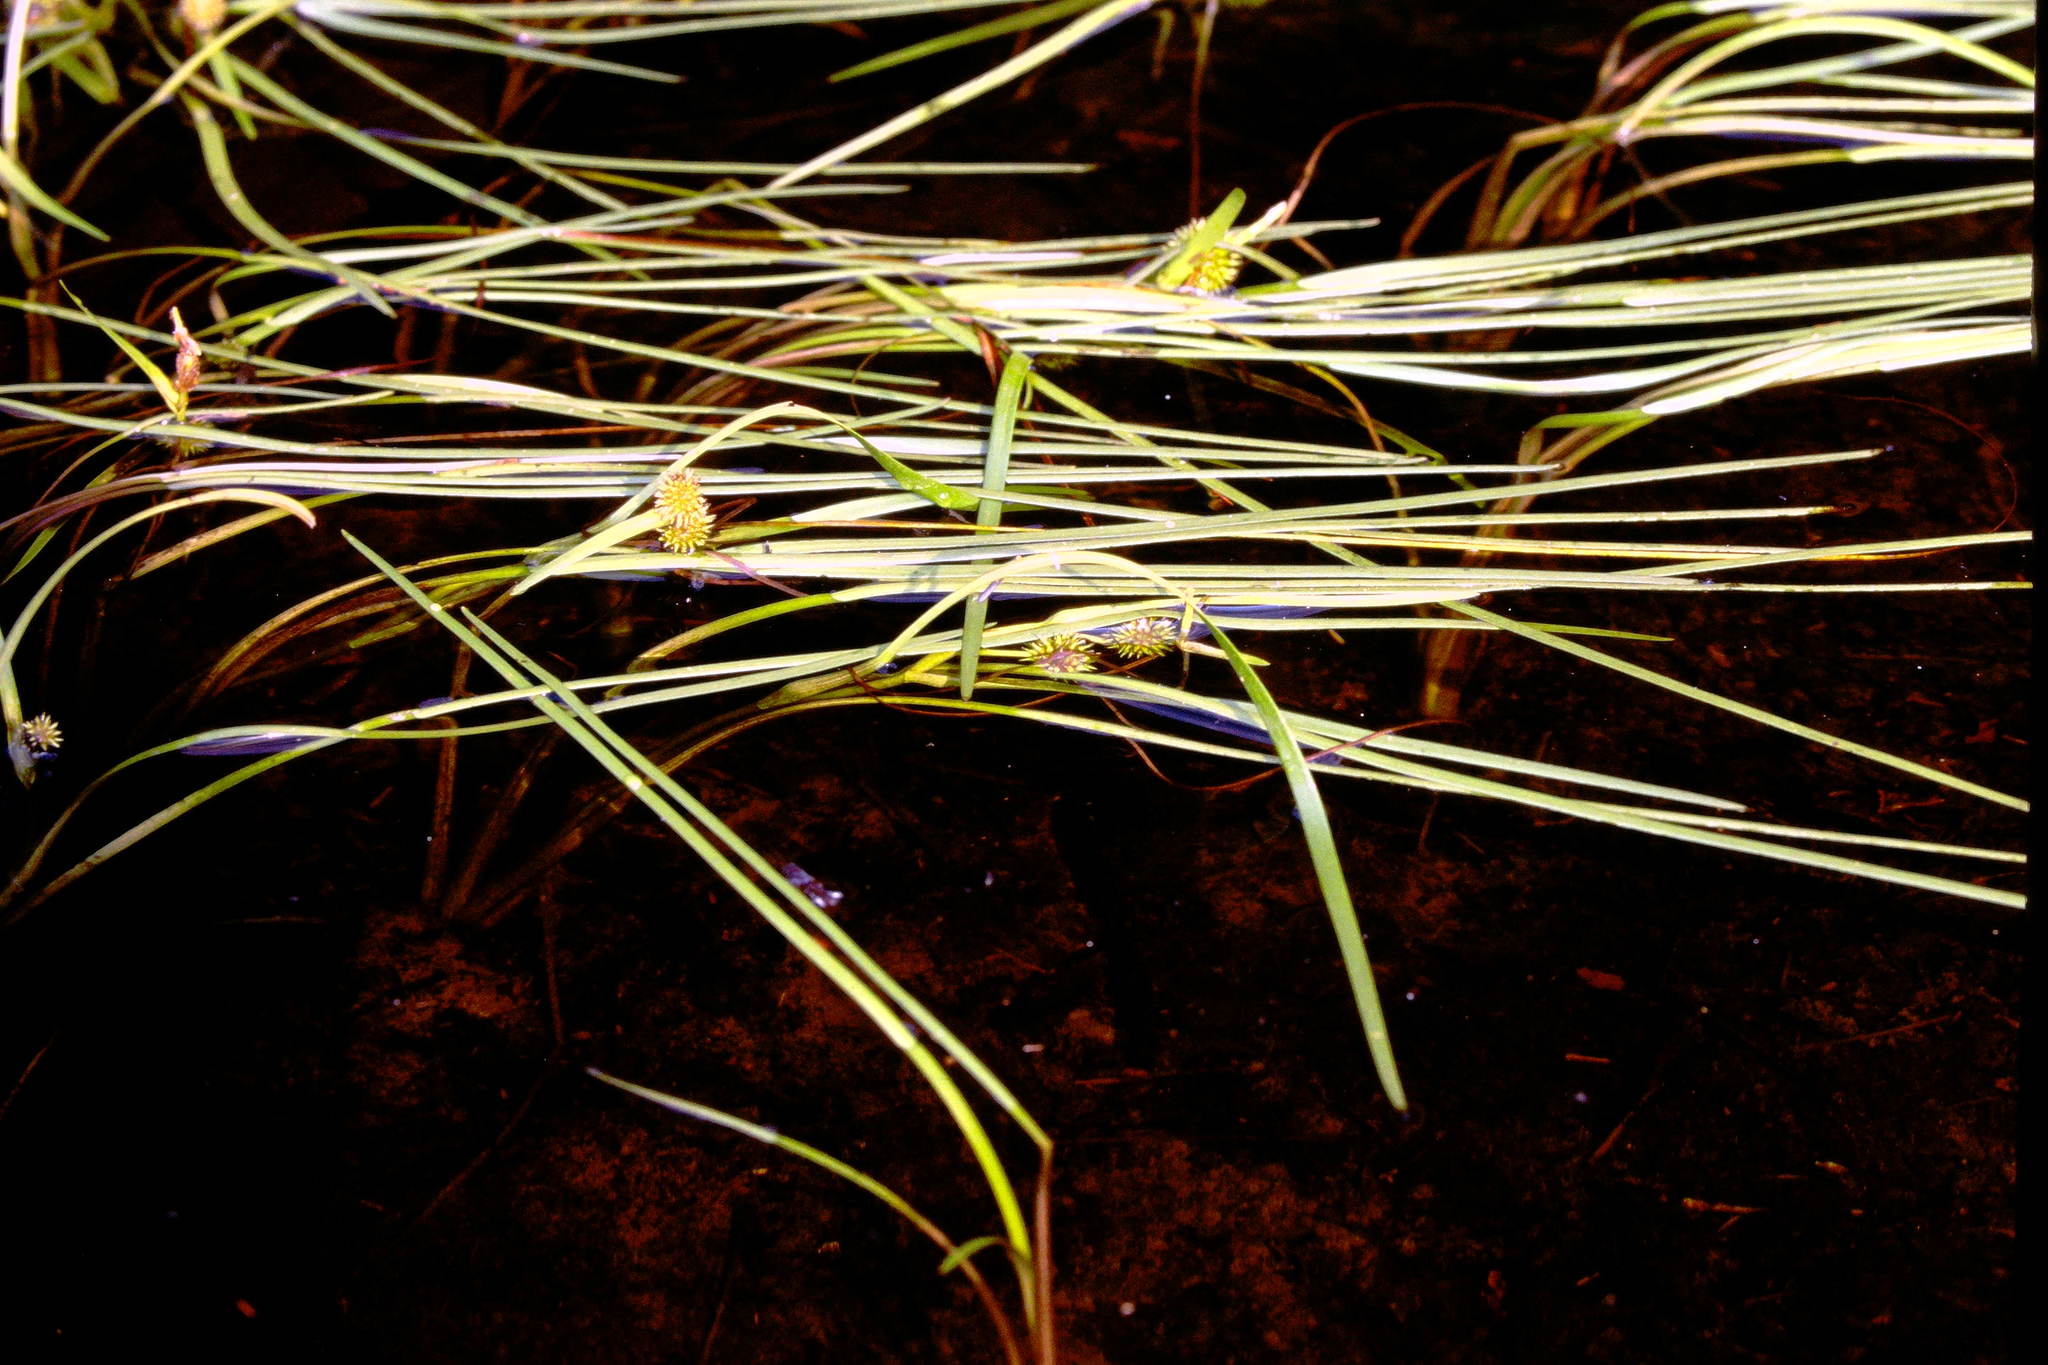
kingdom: Plantae
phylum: Tracheophyta
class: Liliopsida
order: Poales
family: Typhaceae
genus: Sparganium
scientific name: Sparganium fluctuans
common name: Floating burreed
